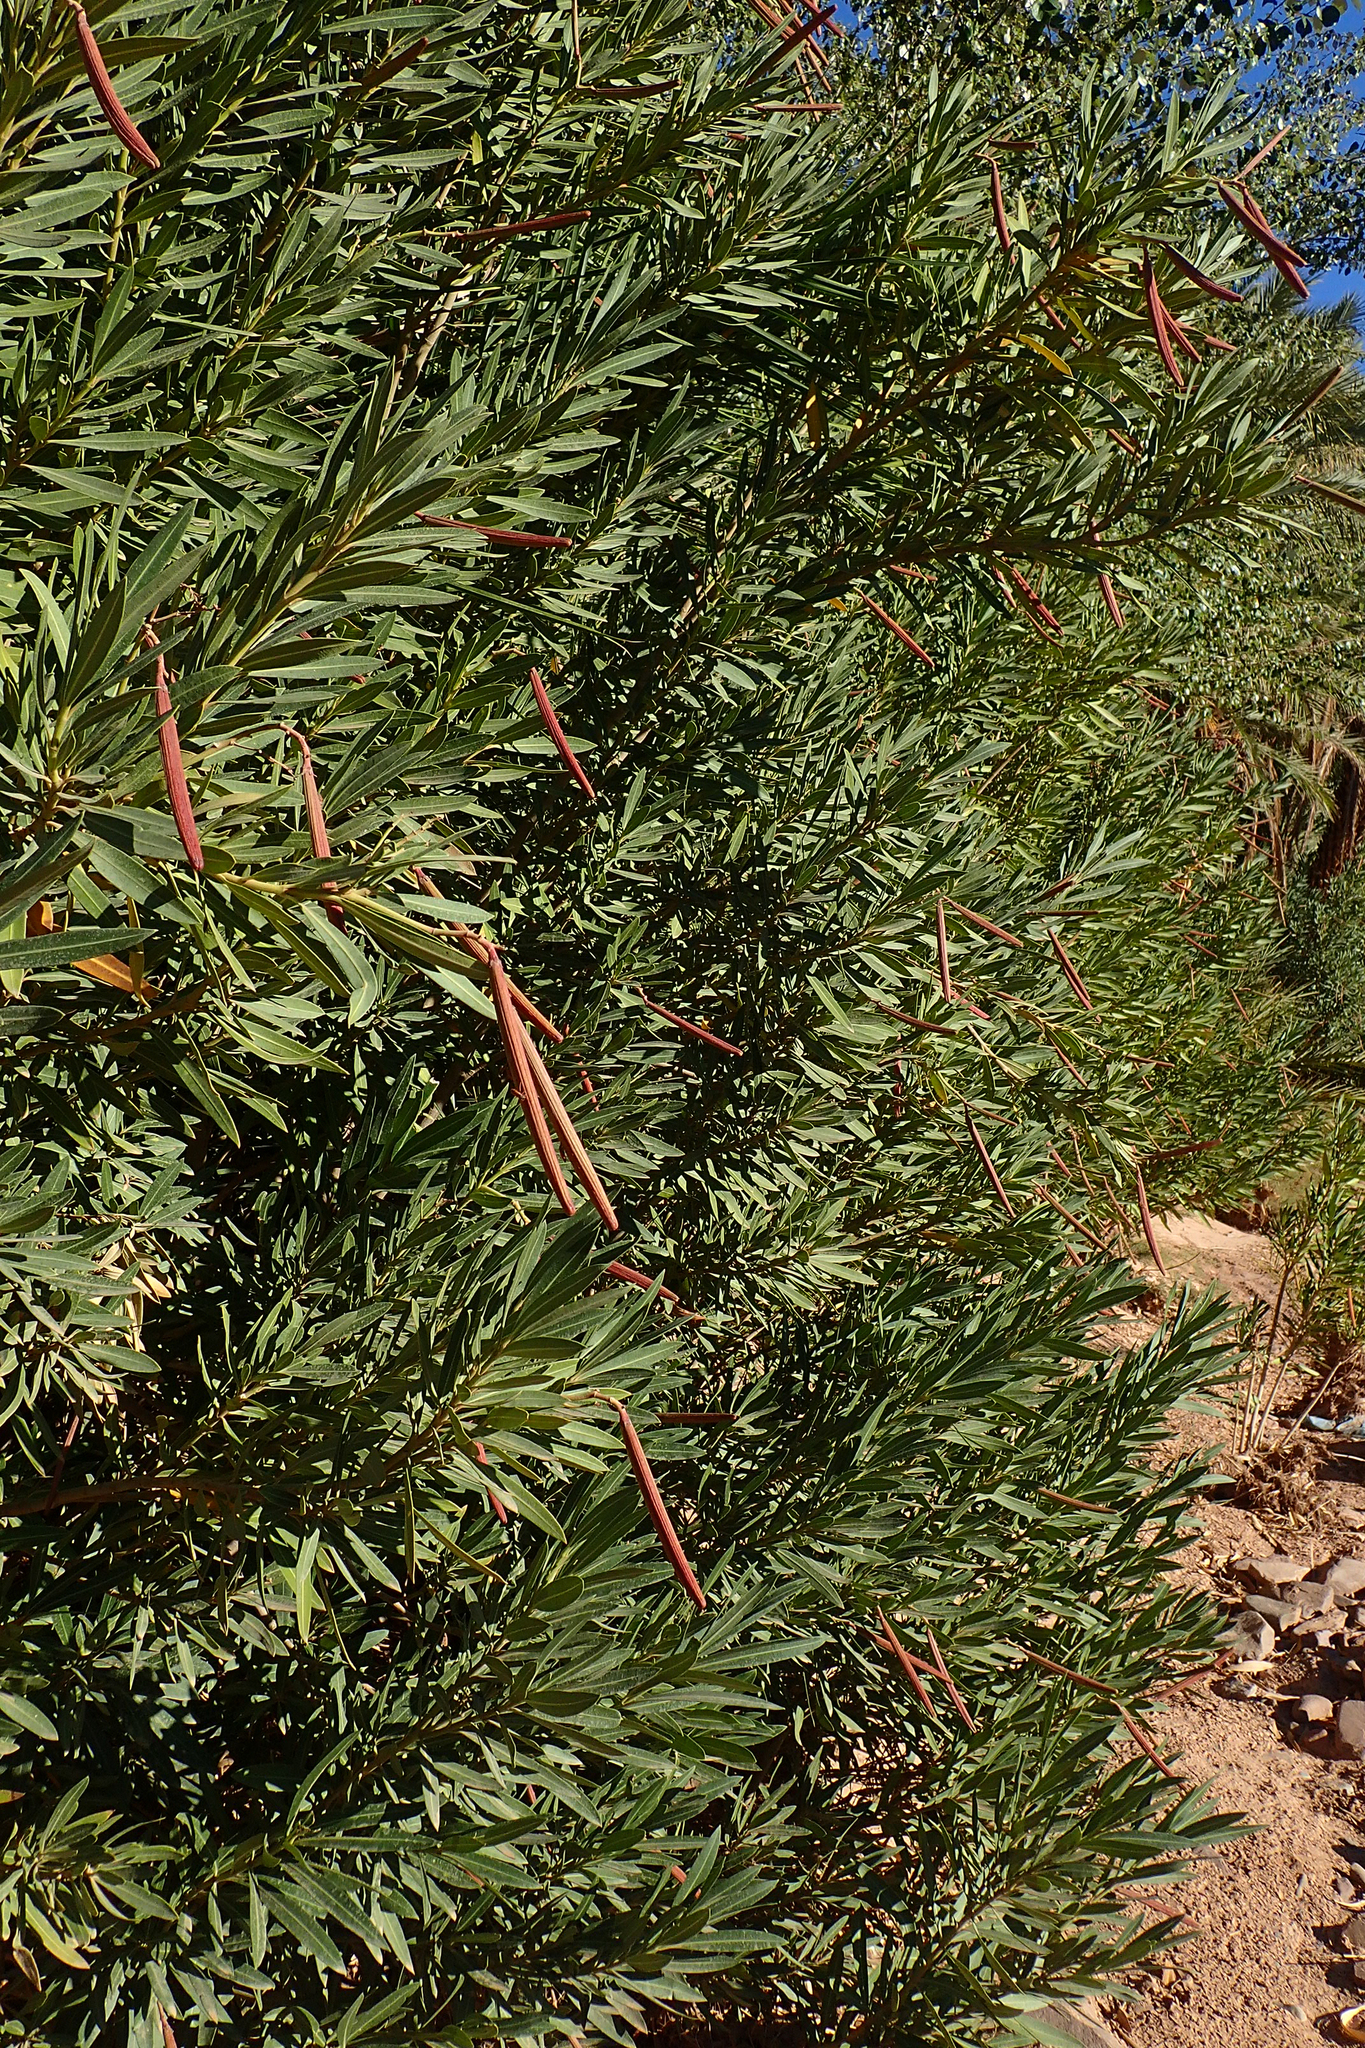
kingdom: Plantae
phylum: Tracheophyta
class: Magnoliopsida
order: Gentianales
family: Apocynaceae
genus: Nerium
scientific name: Nerium oleander
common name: Oleander
